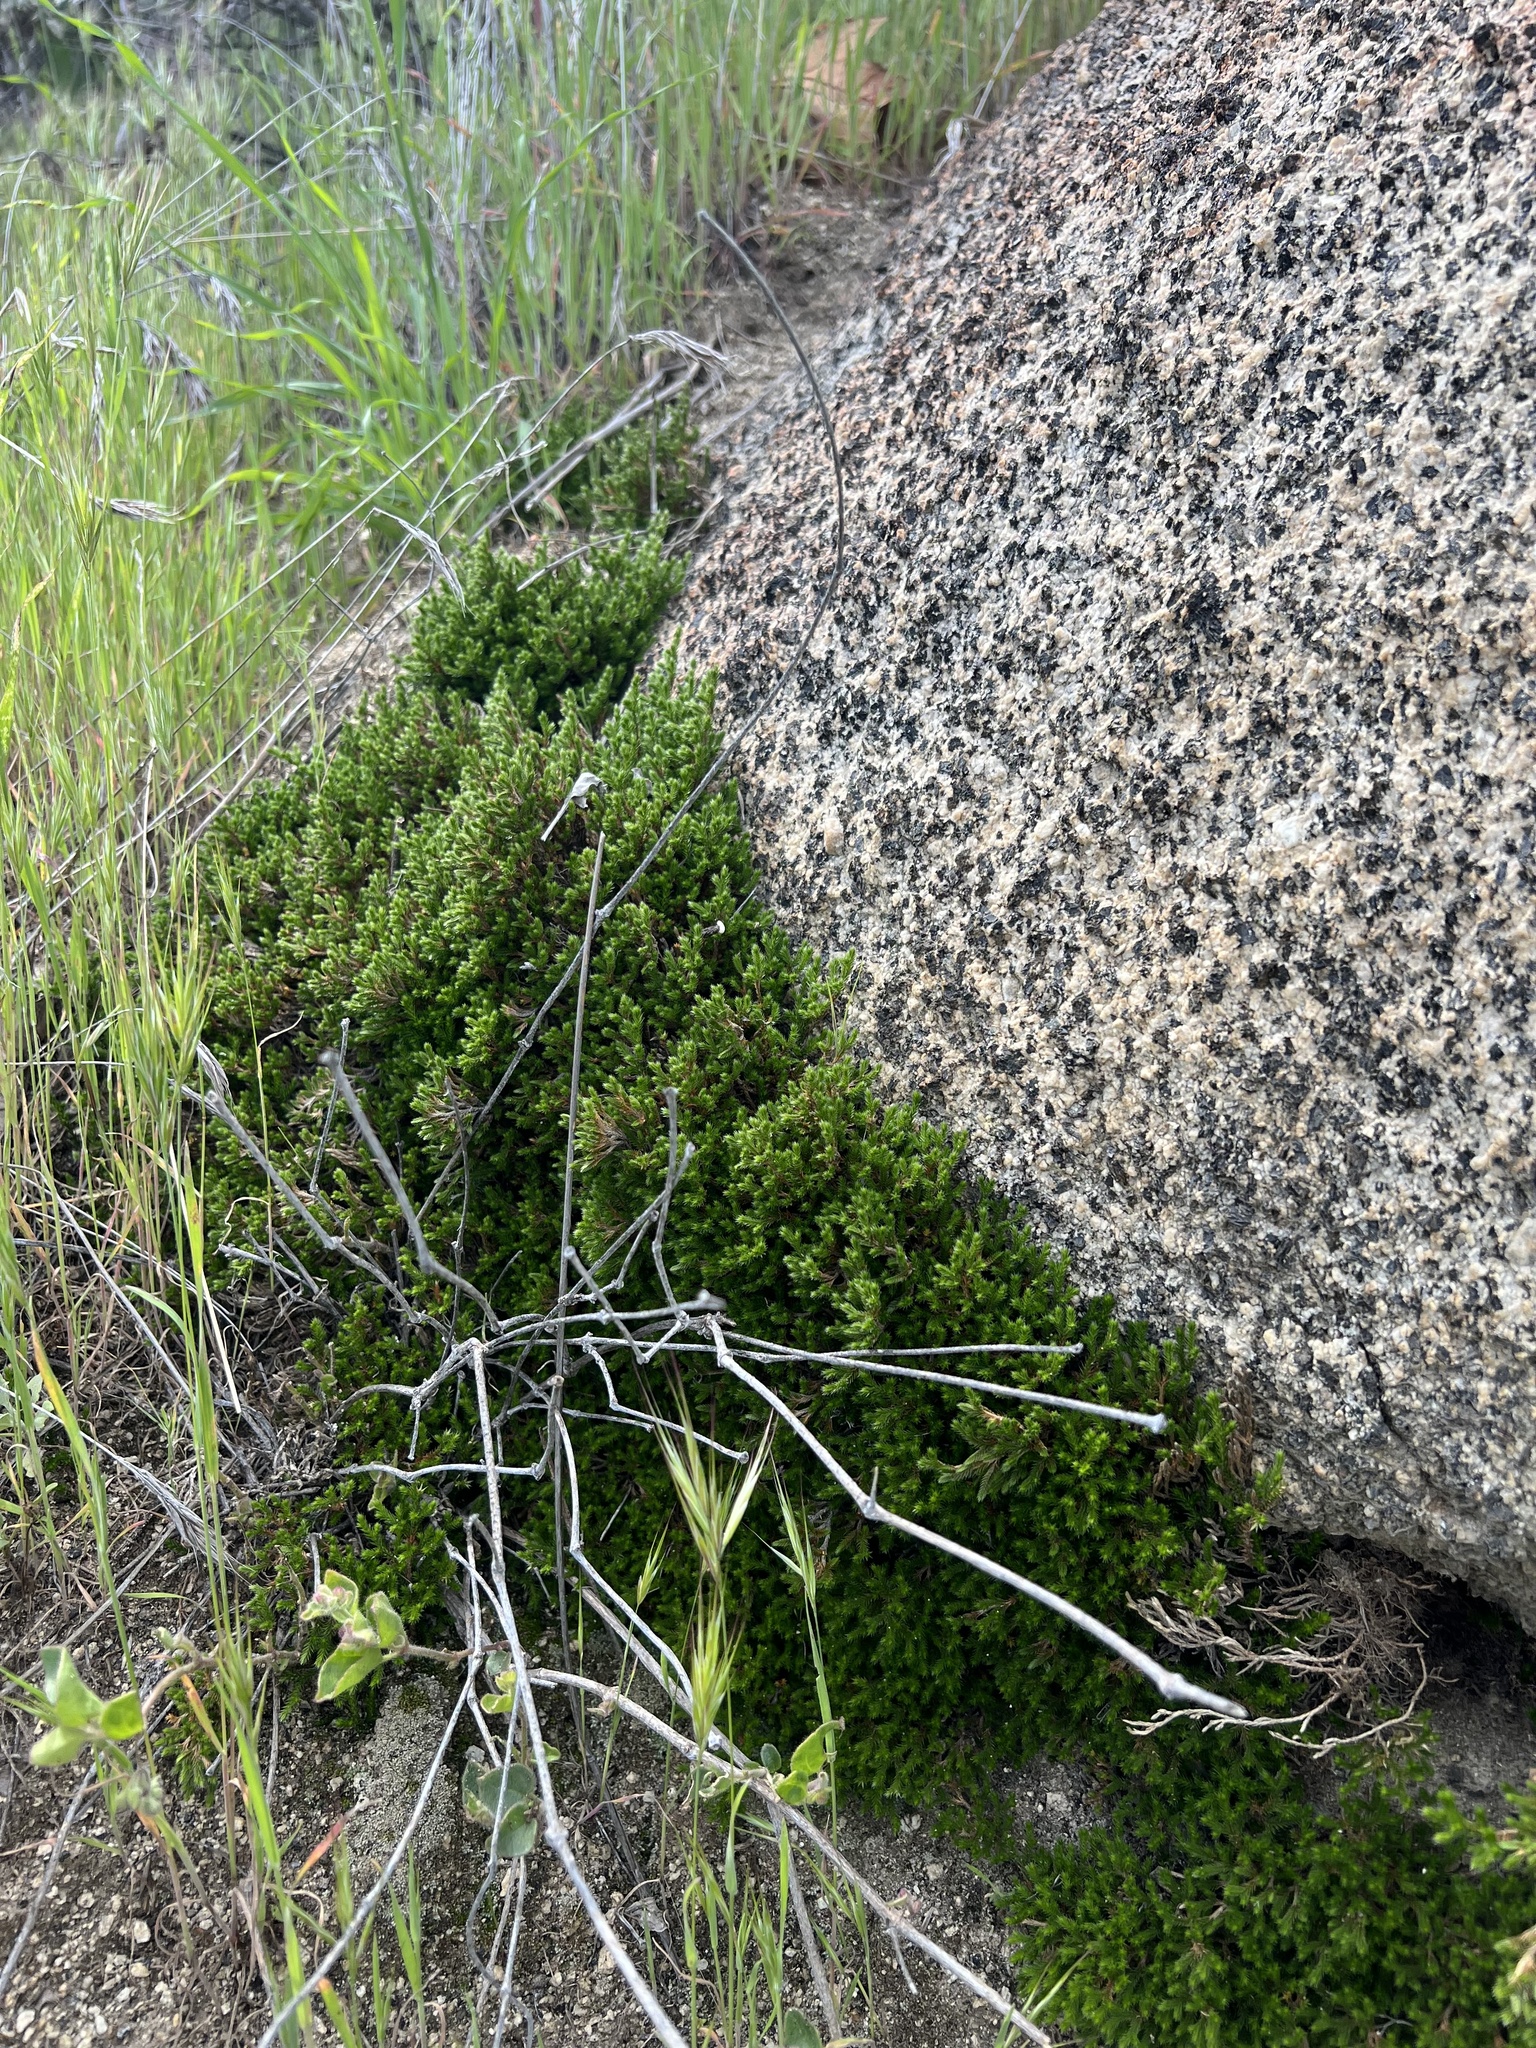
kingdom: Plantae
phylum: Tracheophyta
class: Lycopodiopsida
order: Selaginellales
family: Selaginellaceae
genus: Selaginella
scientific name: Selaginella bigelovii
